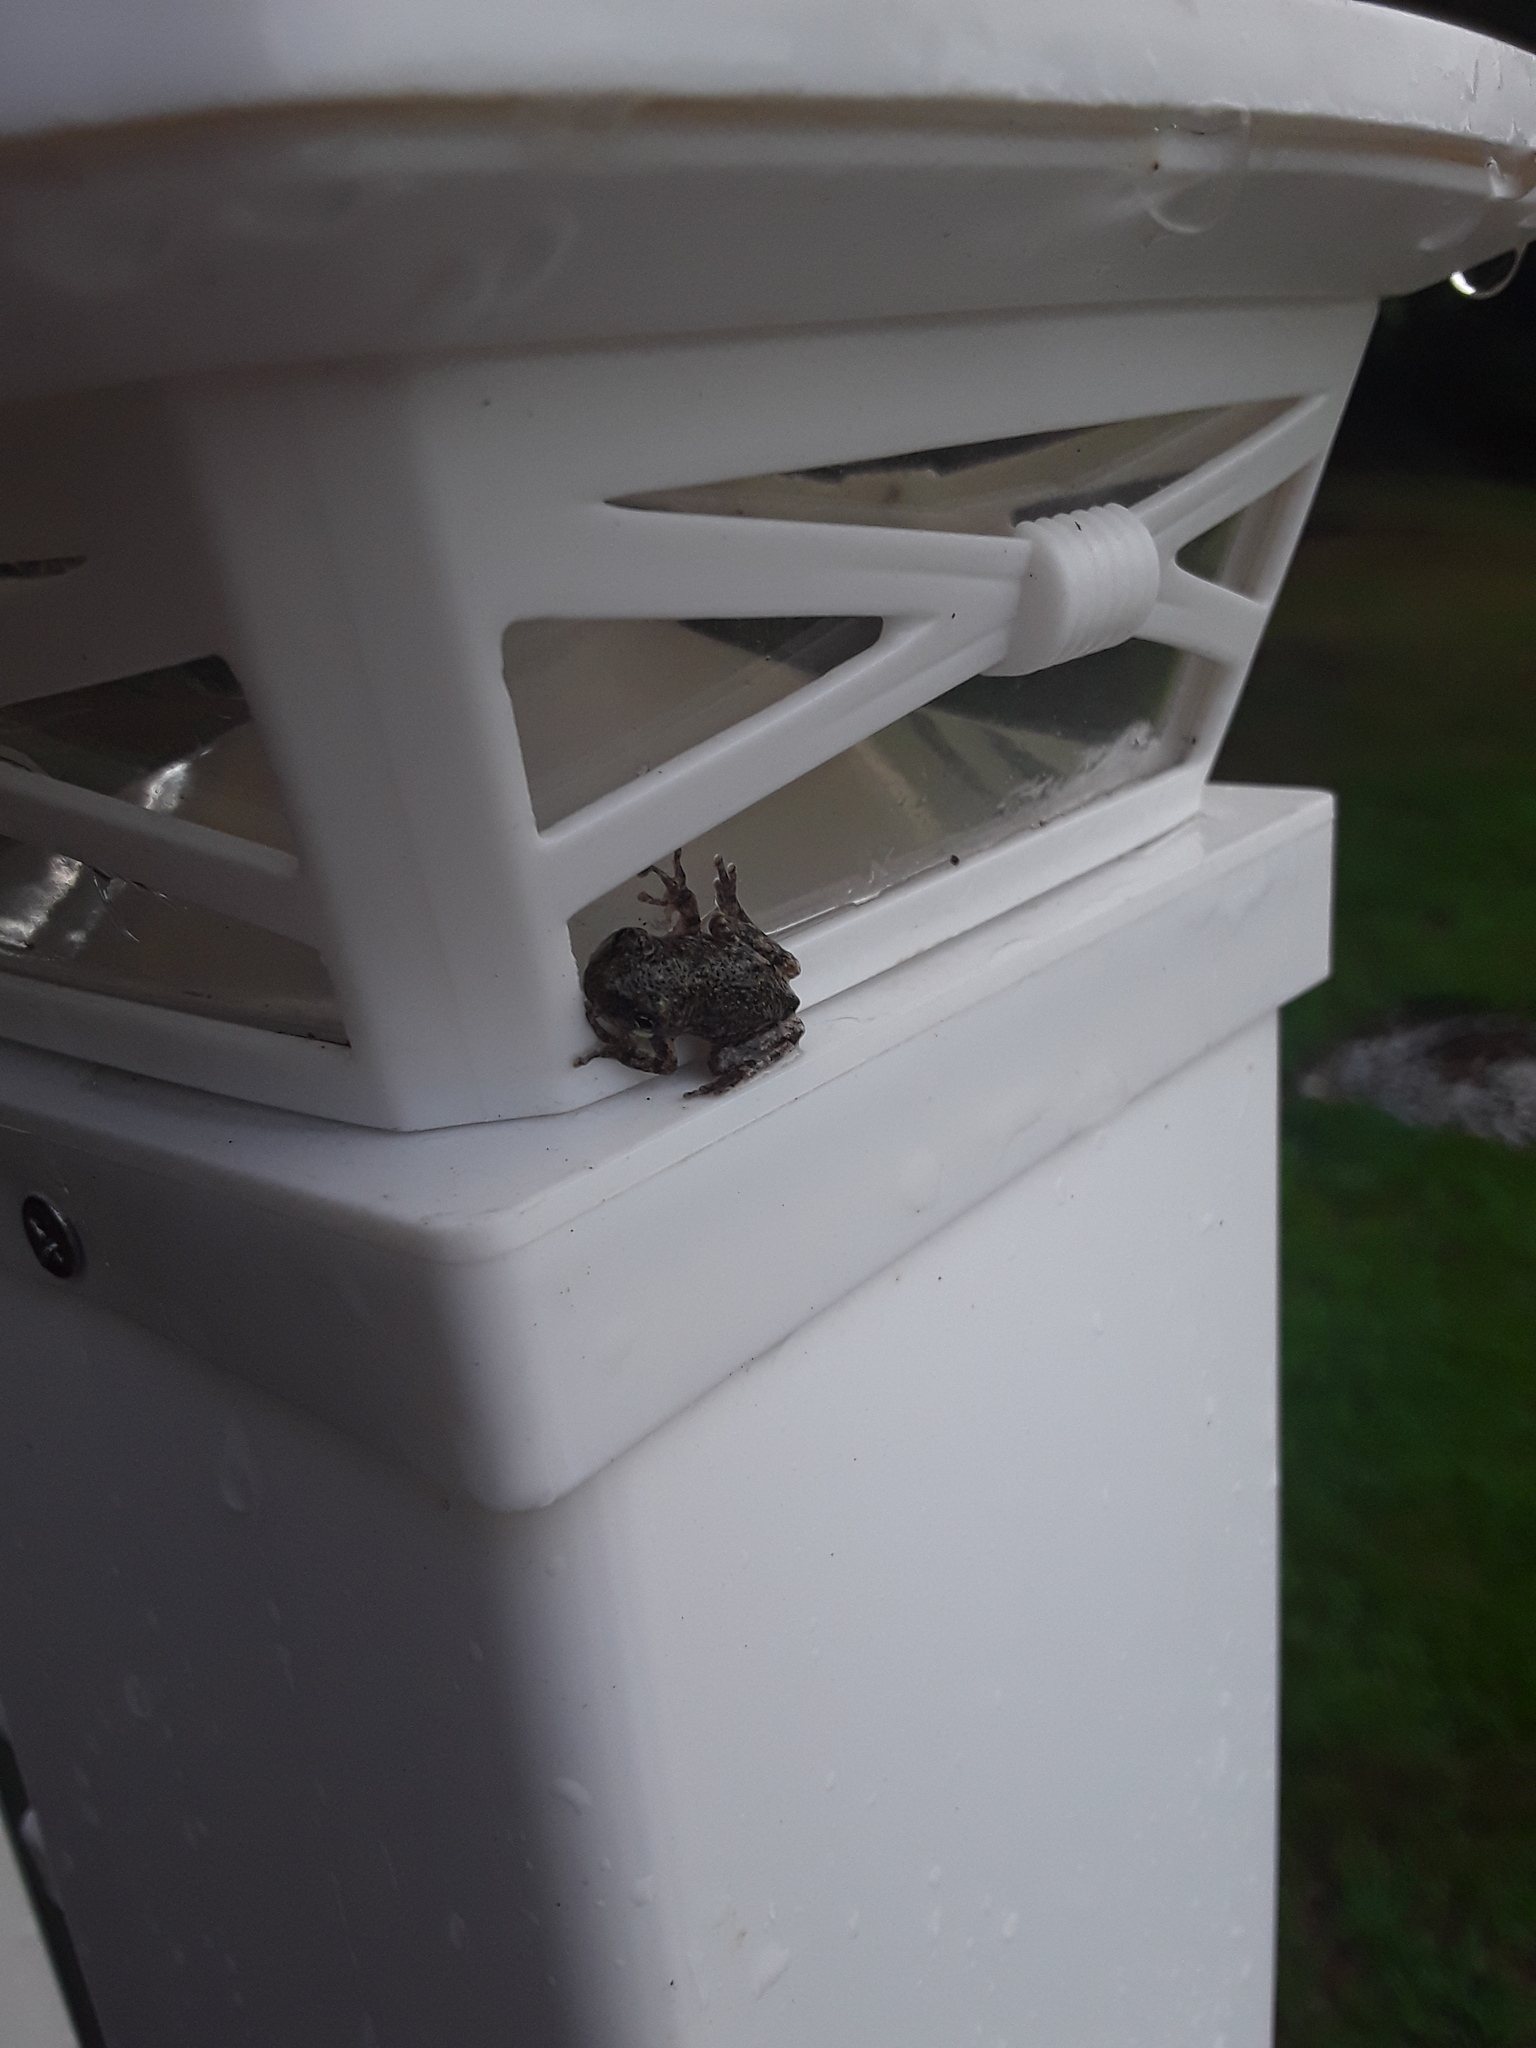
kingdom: Animalia
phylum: Chordata
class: Amphibia
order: Anura
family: Hylidae
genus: Hyla
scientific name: Hyla
